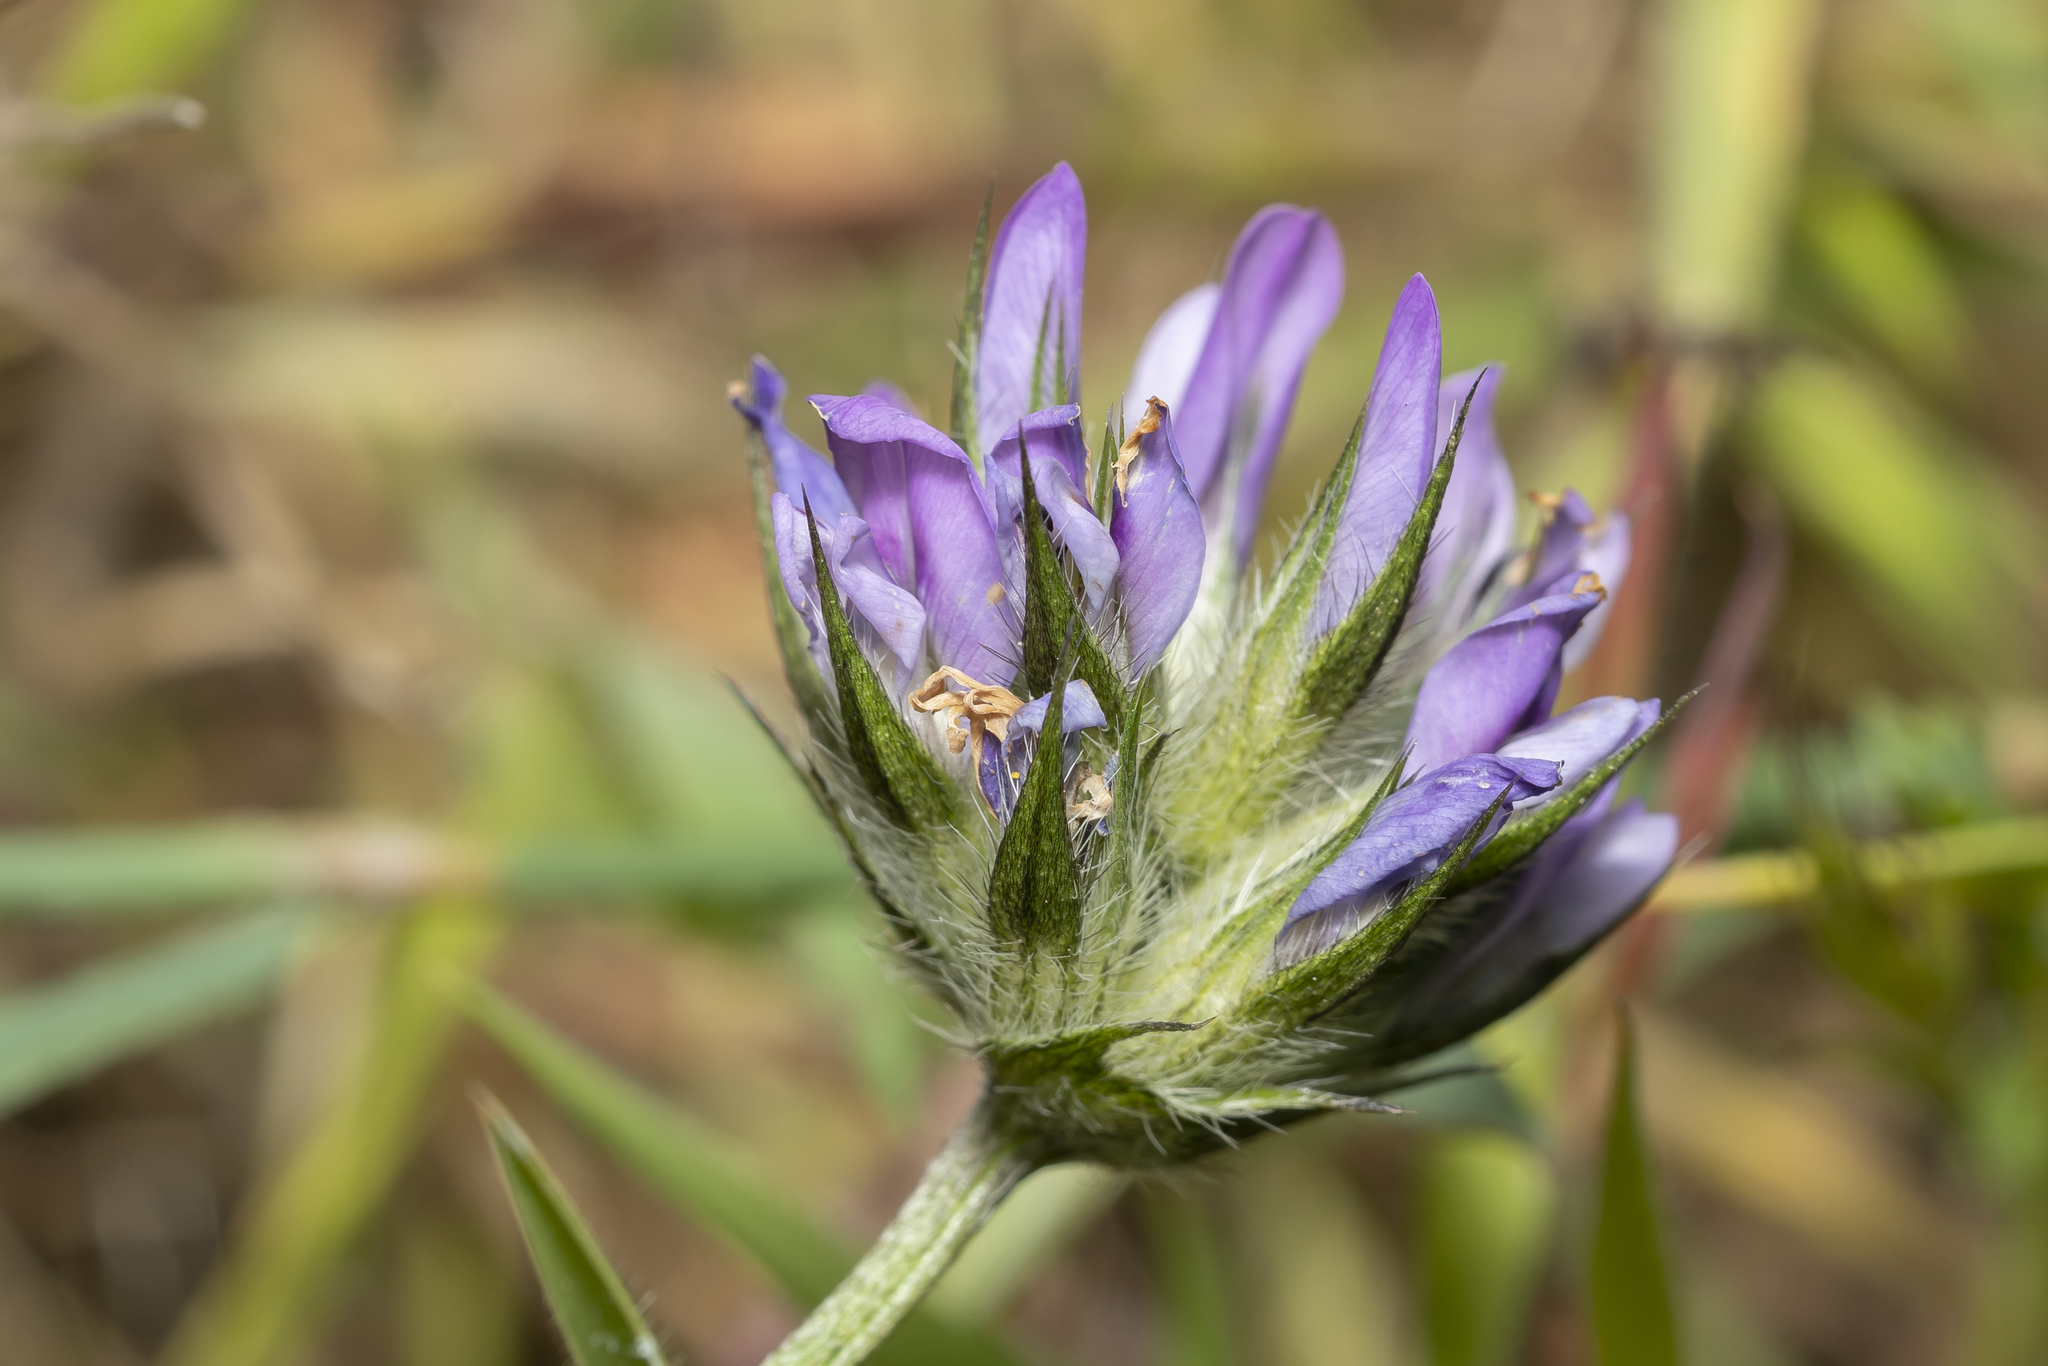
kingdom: Plantae
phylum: Tracheophyta
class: Magnoliopsida
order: Fabales
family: Fabaceae
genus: Bituminaria
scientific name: Bituminaria bituminosa
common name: Arabian pea
